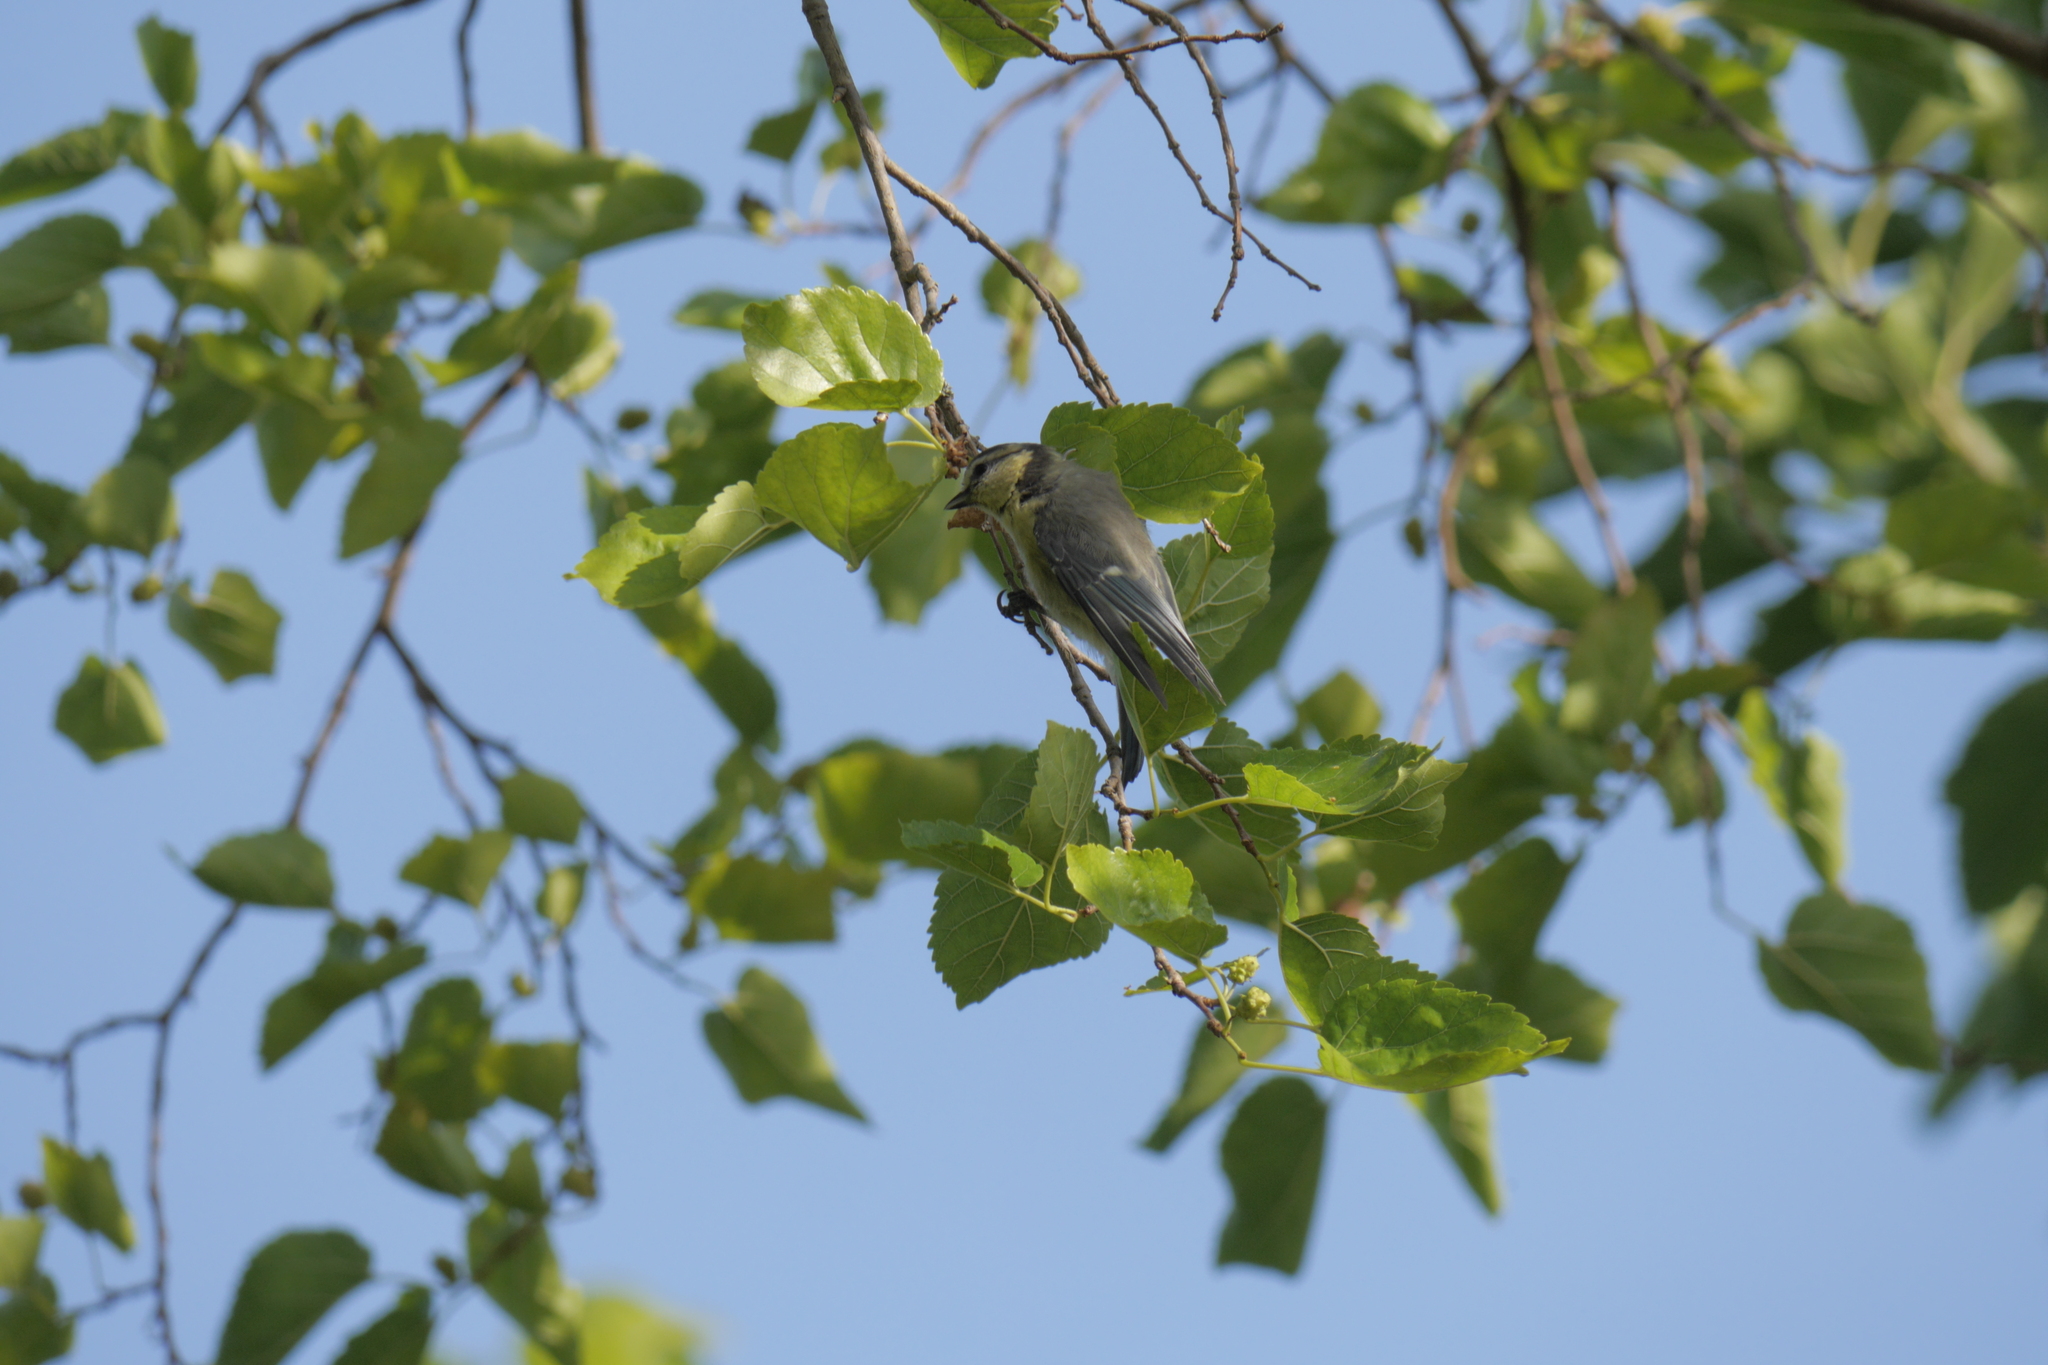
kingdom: Animalia
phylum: Chordata
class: Aves
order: Passeriformes
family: Paridae
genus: Cyanistes
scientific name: Cyanistes caeruleus
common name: Eurasian blue tit
